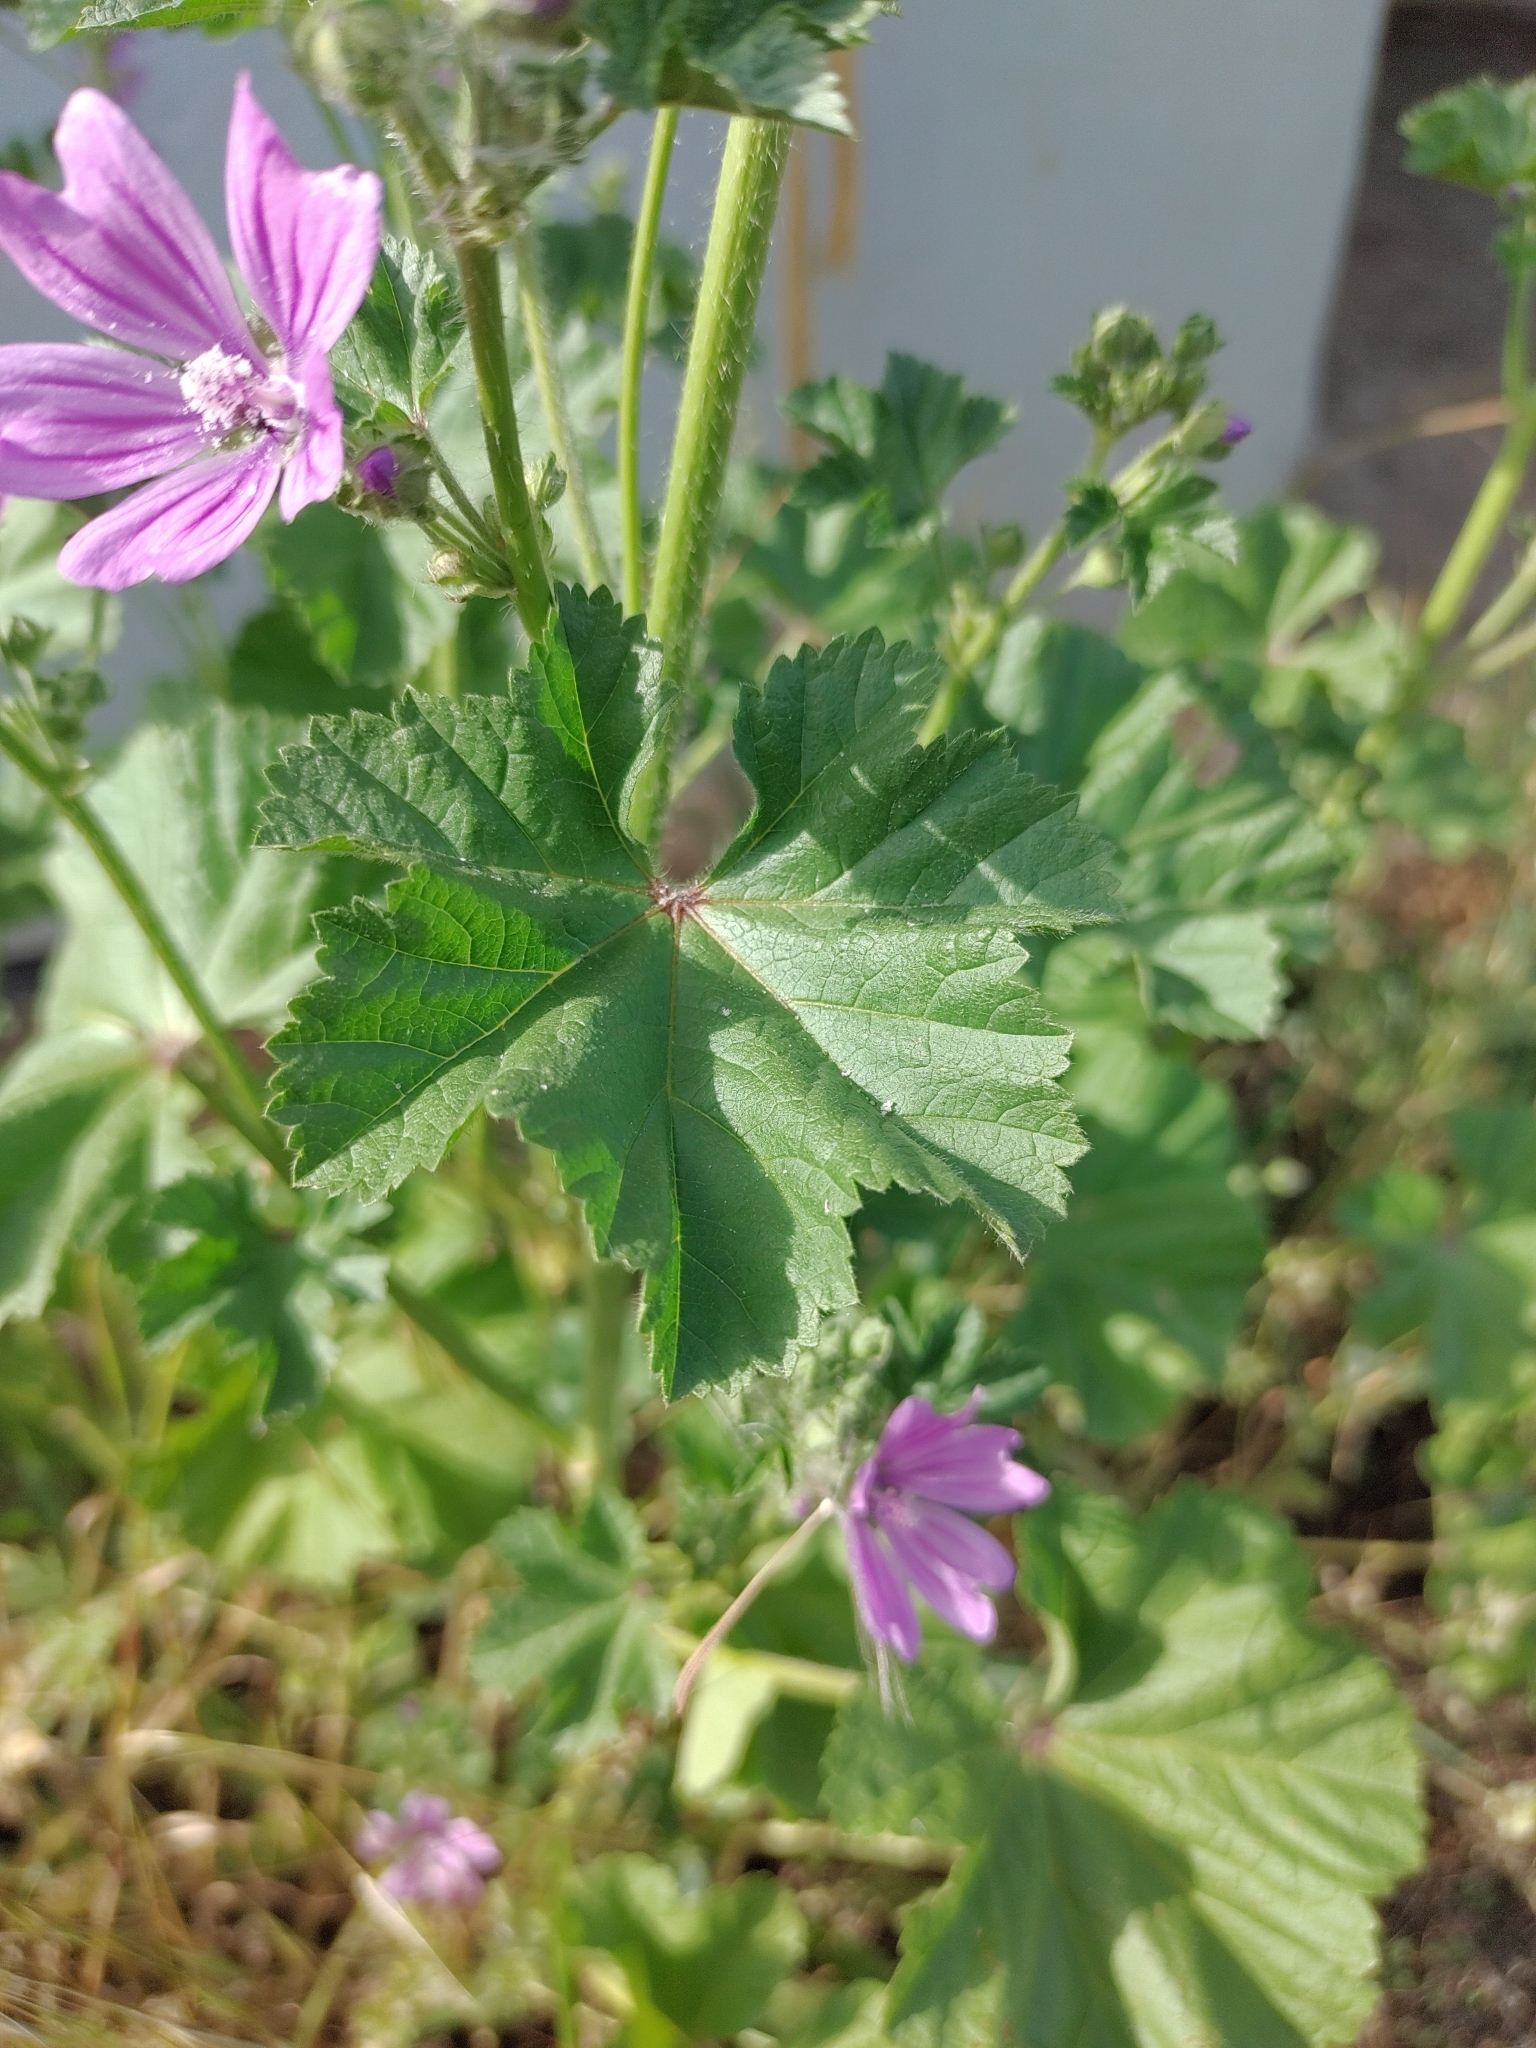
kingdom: Plantae
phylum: Tracheophyta
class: Magnoliopsida
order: Malvales
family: Malvaceae
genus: Malva
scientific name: Malva sylvestris
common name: Common mallow
